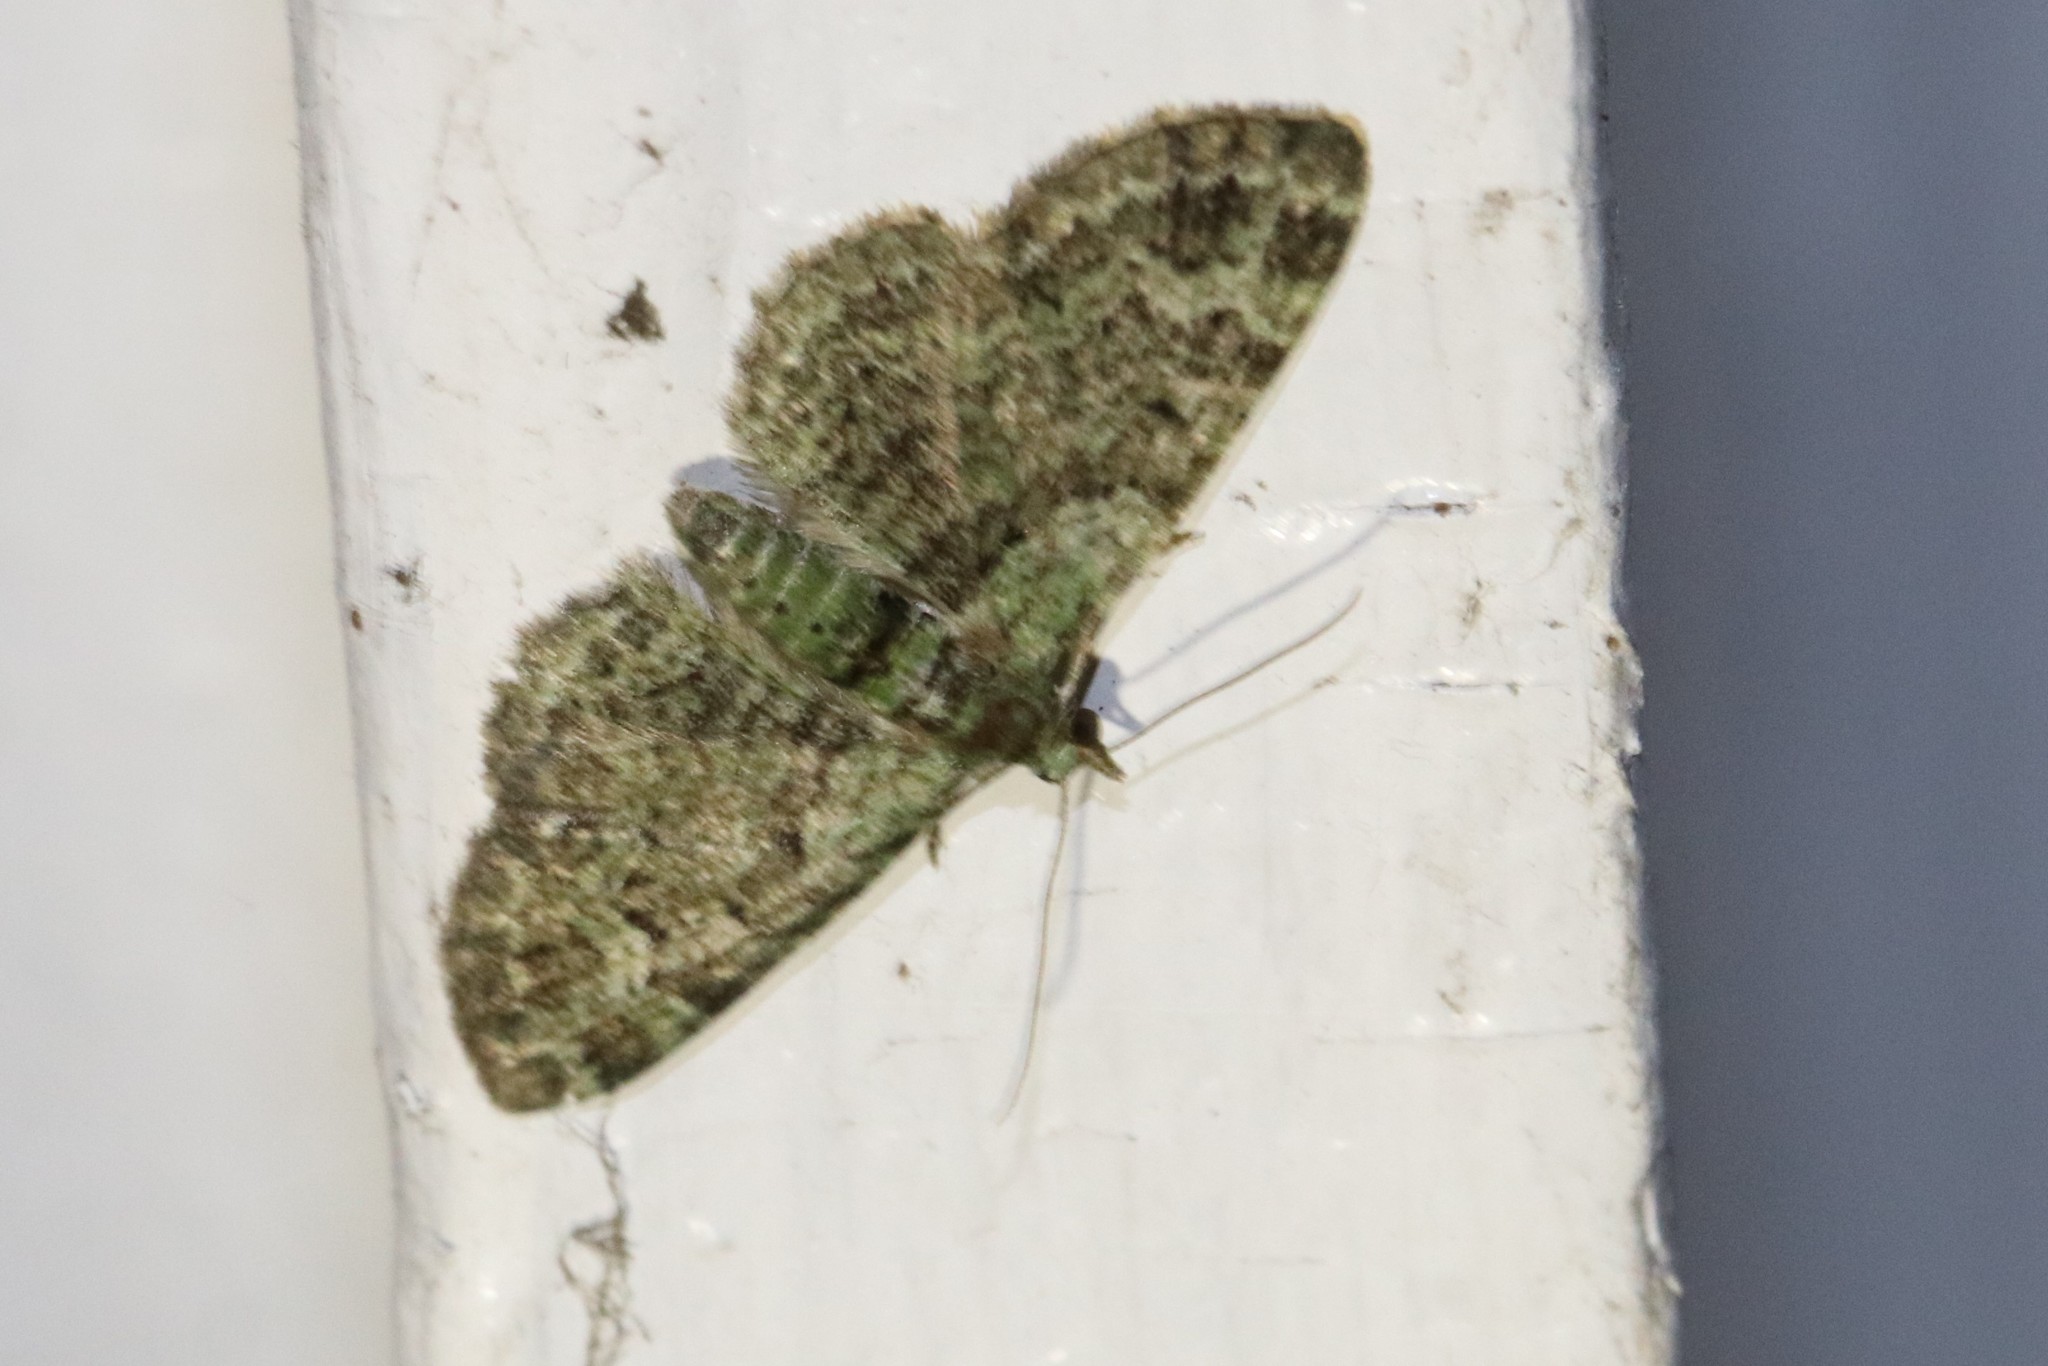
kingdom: Animalia
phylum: Arthropoda
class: Insecta
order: Lepidoptera
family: Geometridae
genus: Pasiphila
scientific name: Pasiphila rectangulata
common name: Green pug
